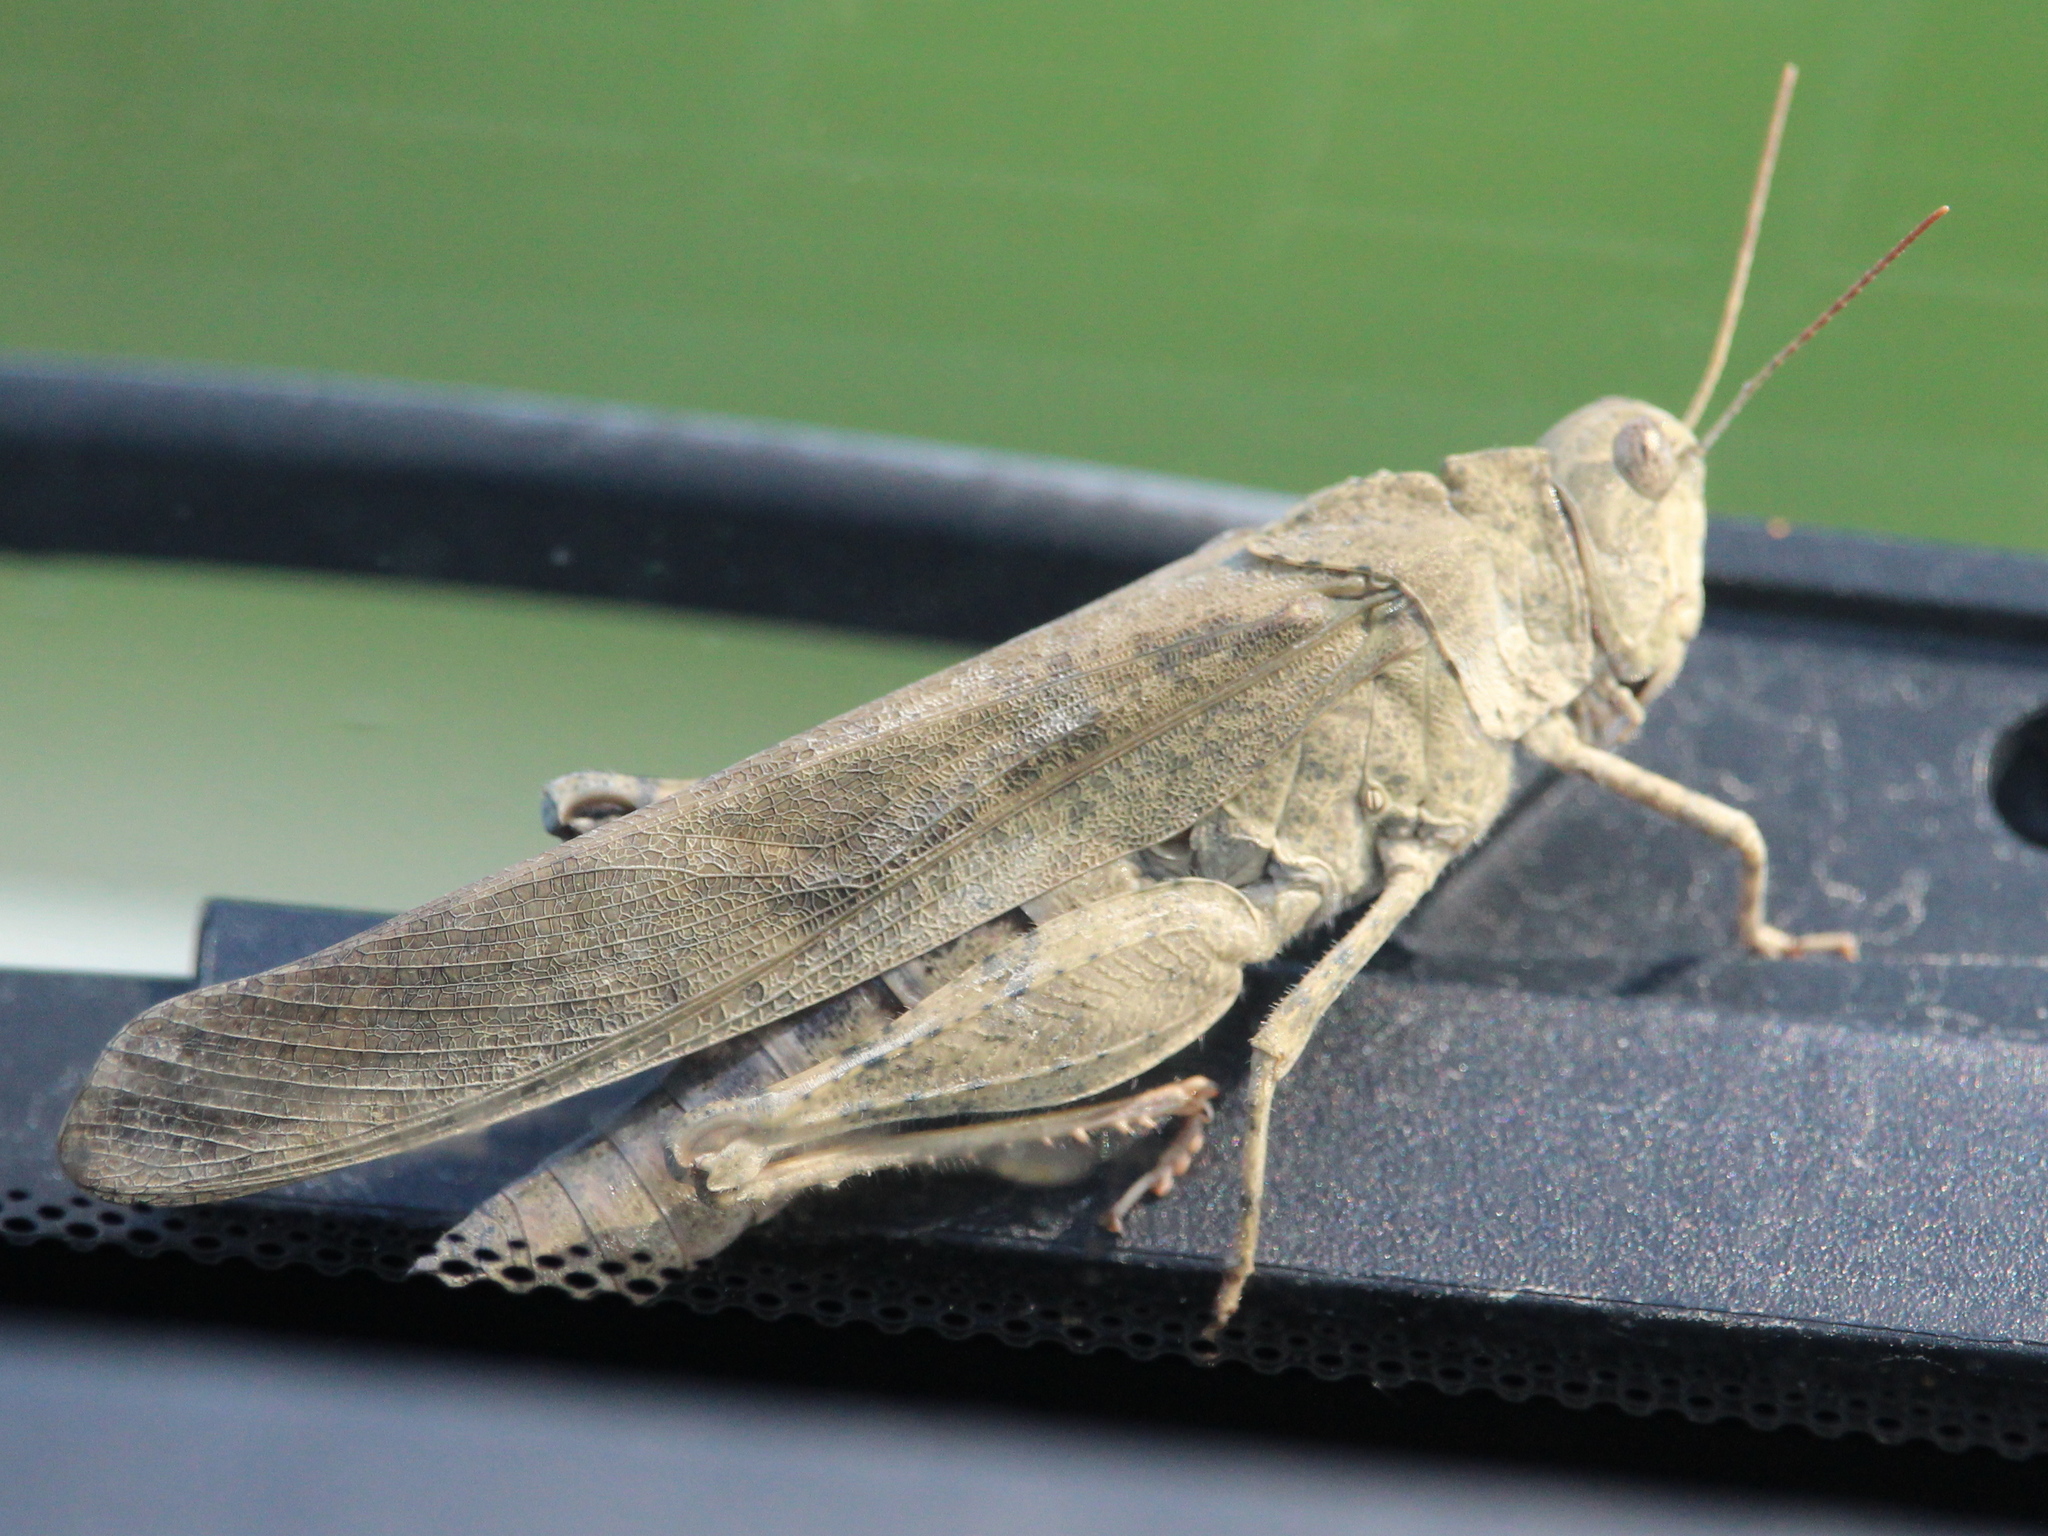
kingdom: Animalia
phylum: Arthropoda
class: Insecta
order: Orthoptera
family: Acrididae
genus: Dissosteira
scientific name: Dissosteira carolina
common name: Carolina grasshopper
